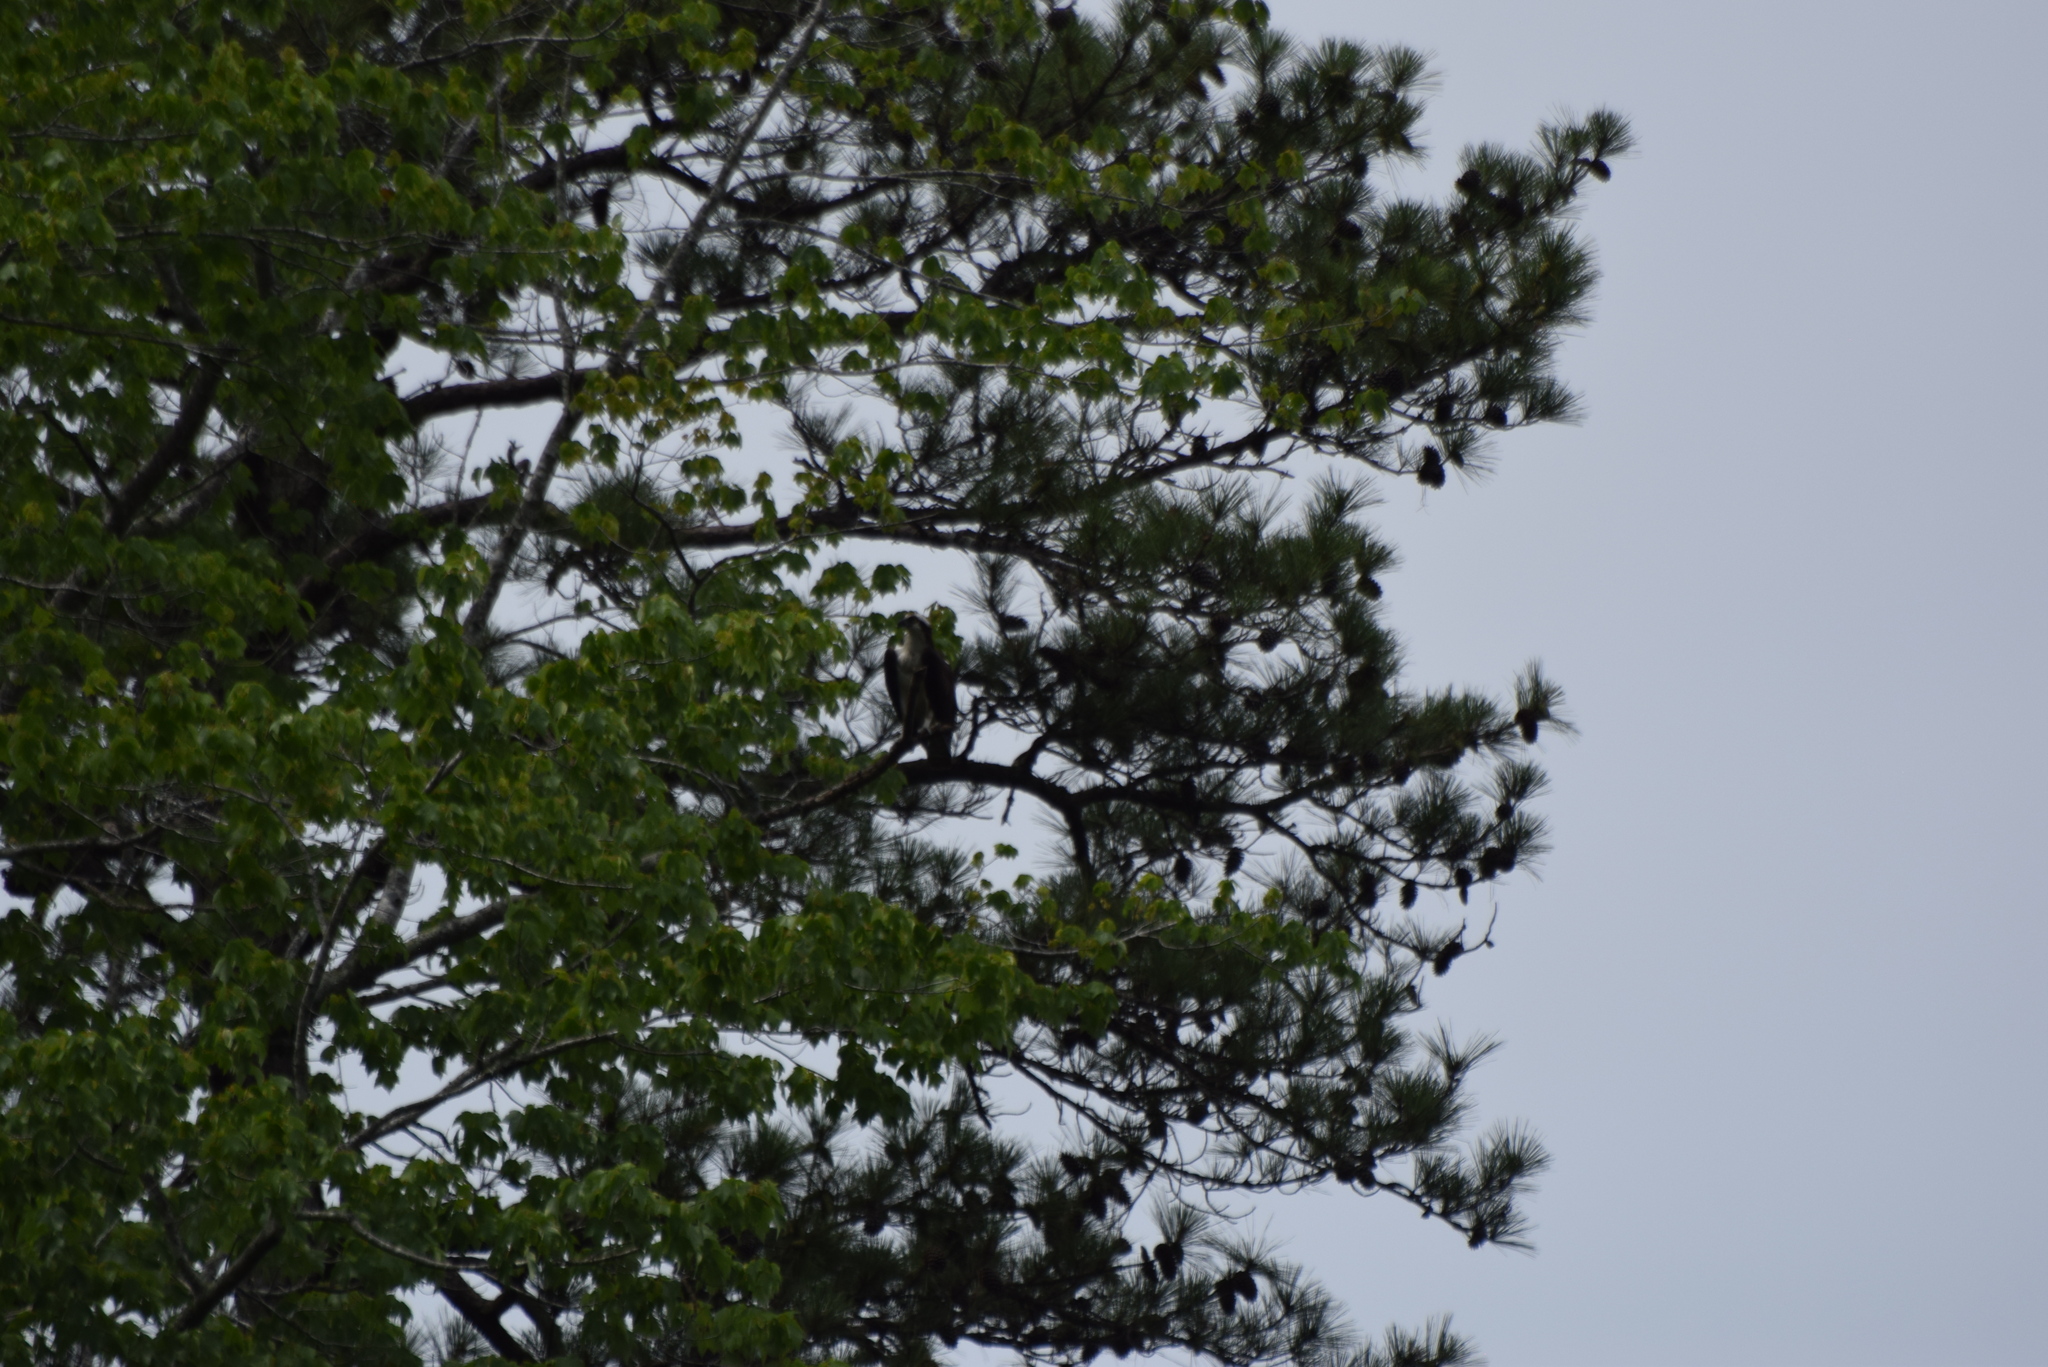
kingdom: Animalia
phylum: Chordata
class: Aves
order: Accipitriformes
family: Pandionidae
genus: Pandion
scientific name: Pandion haliaetus
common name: Osprey
